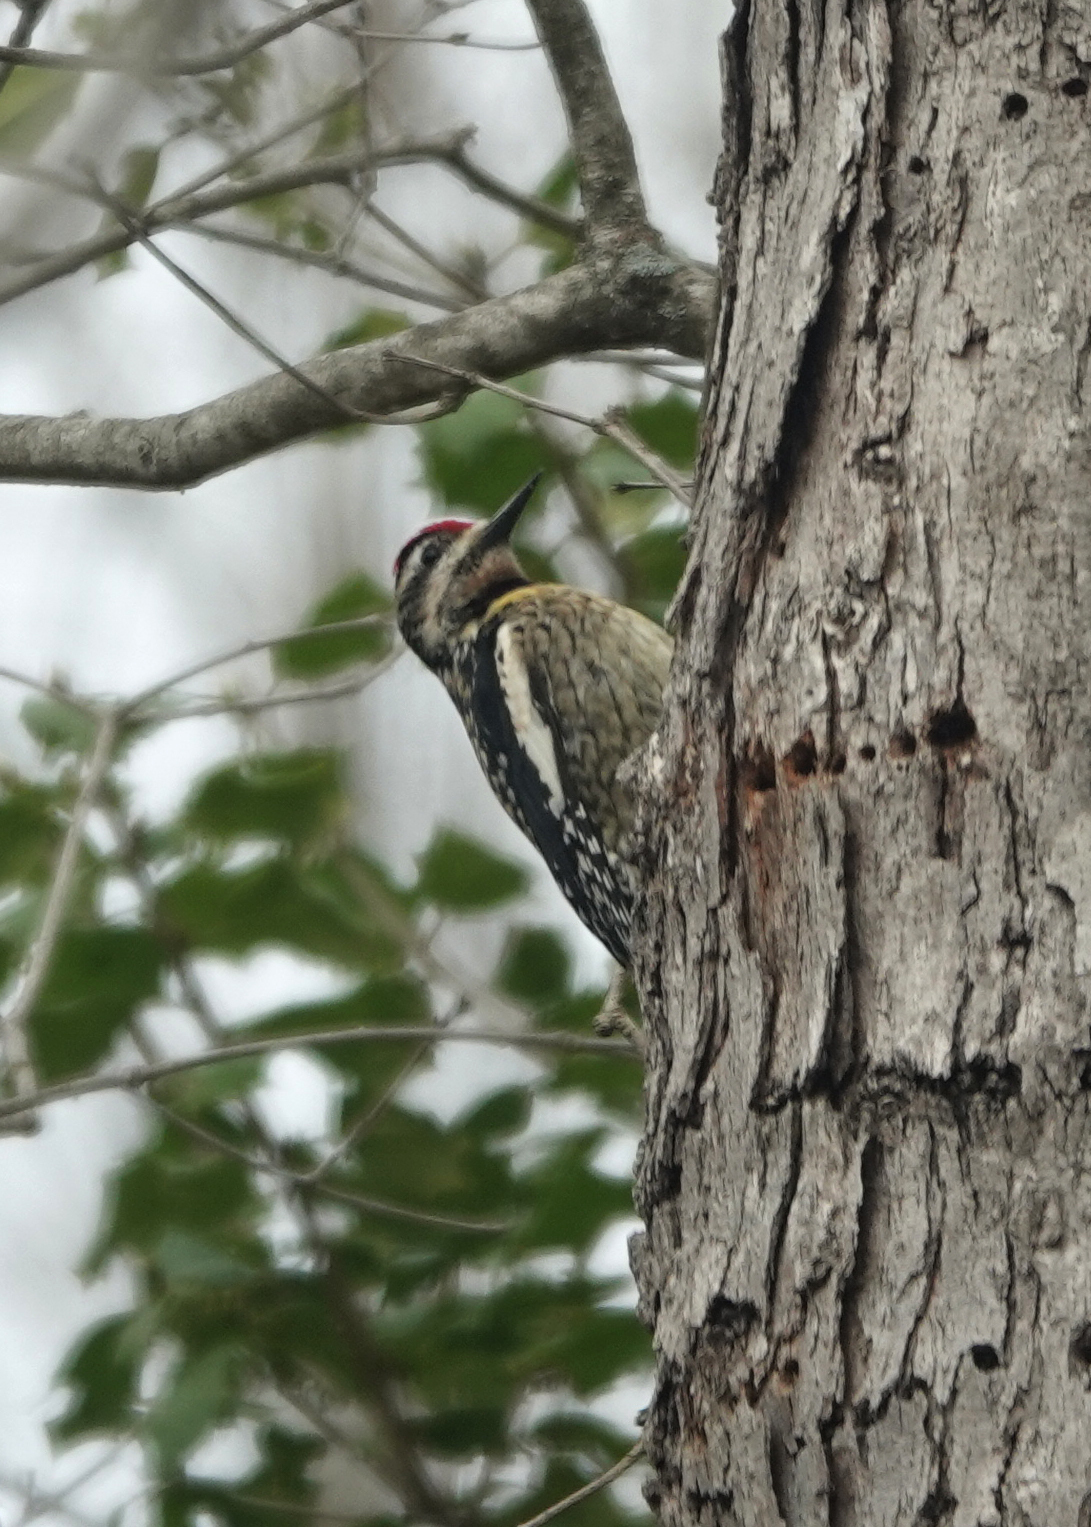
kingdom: Animalia
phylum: Chordata
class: Aves
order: Piciformes
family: Picidae
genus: Sphyrapicus
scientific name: Sphyrapicus varius
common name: Yellow-bellied sapsucker
